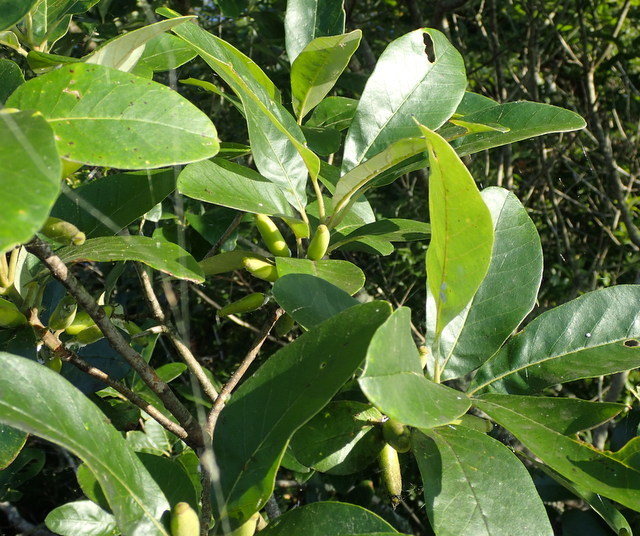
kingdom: Plantae
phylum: Tracheophyta
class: Magnoliopsida
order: Cornales
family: Nyssaceae
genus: Nyssa
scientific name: Nyssa ogeche
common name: Ogeechee tupelo
